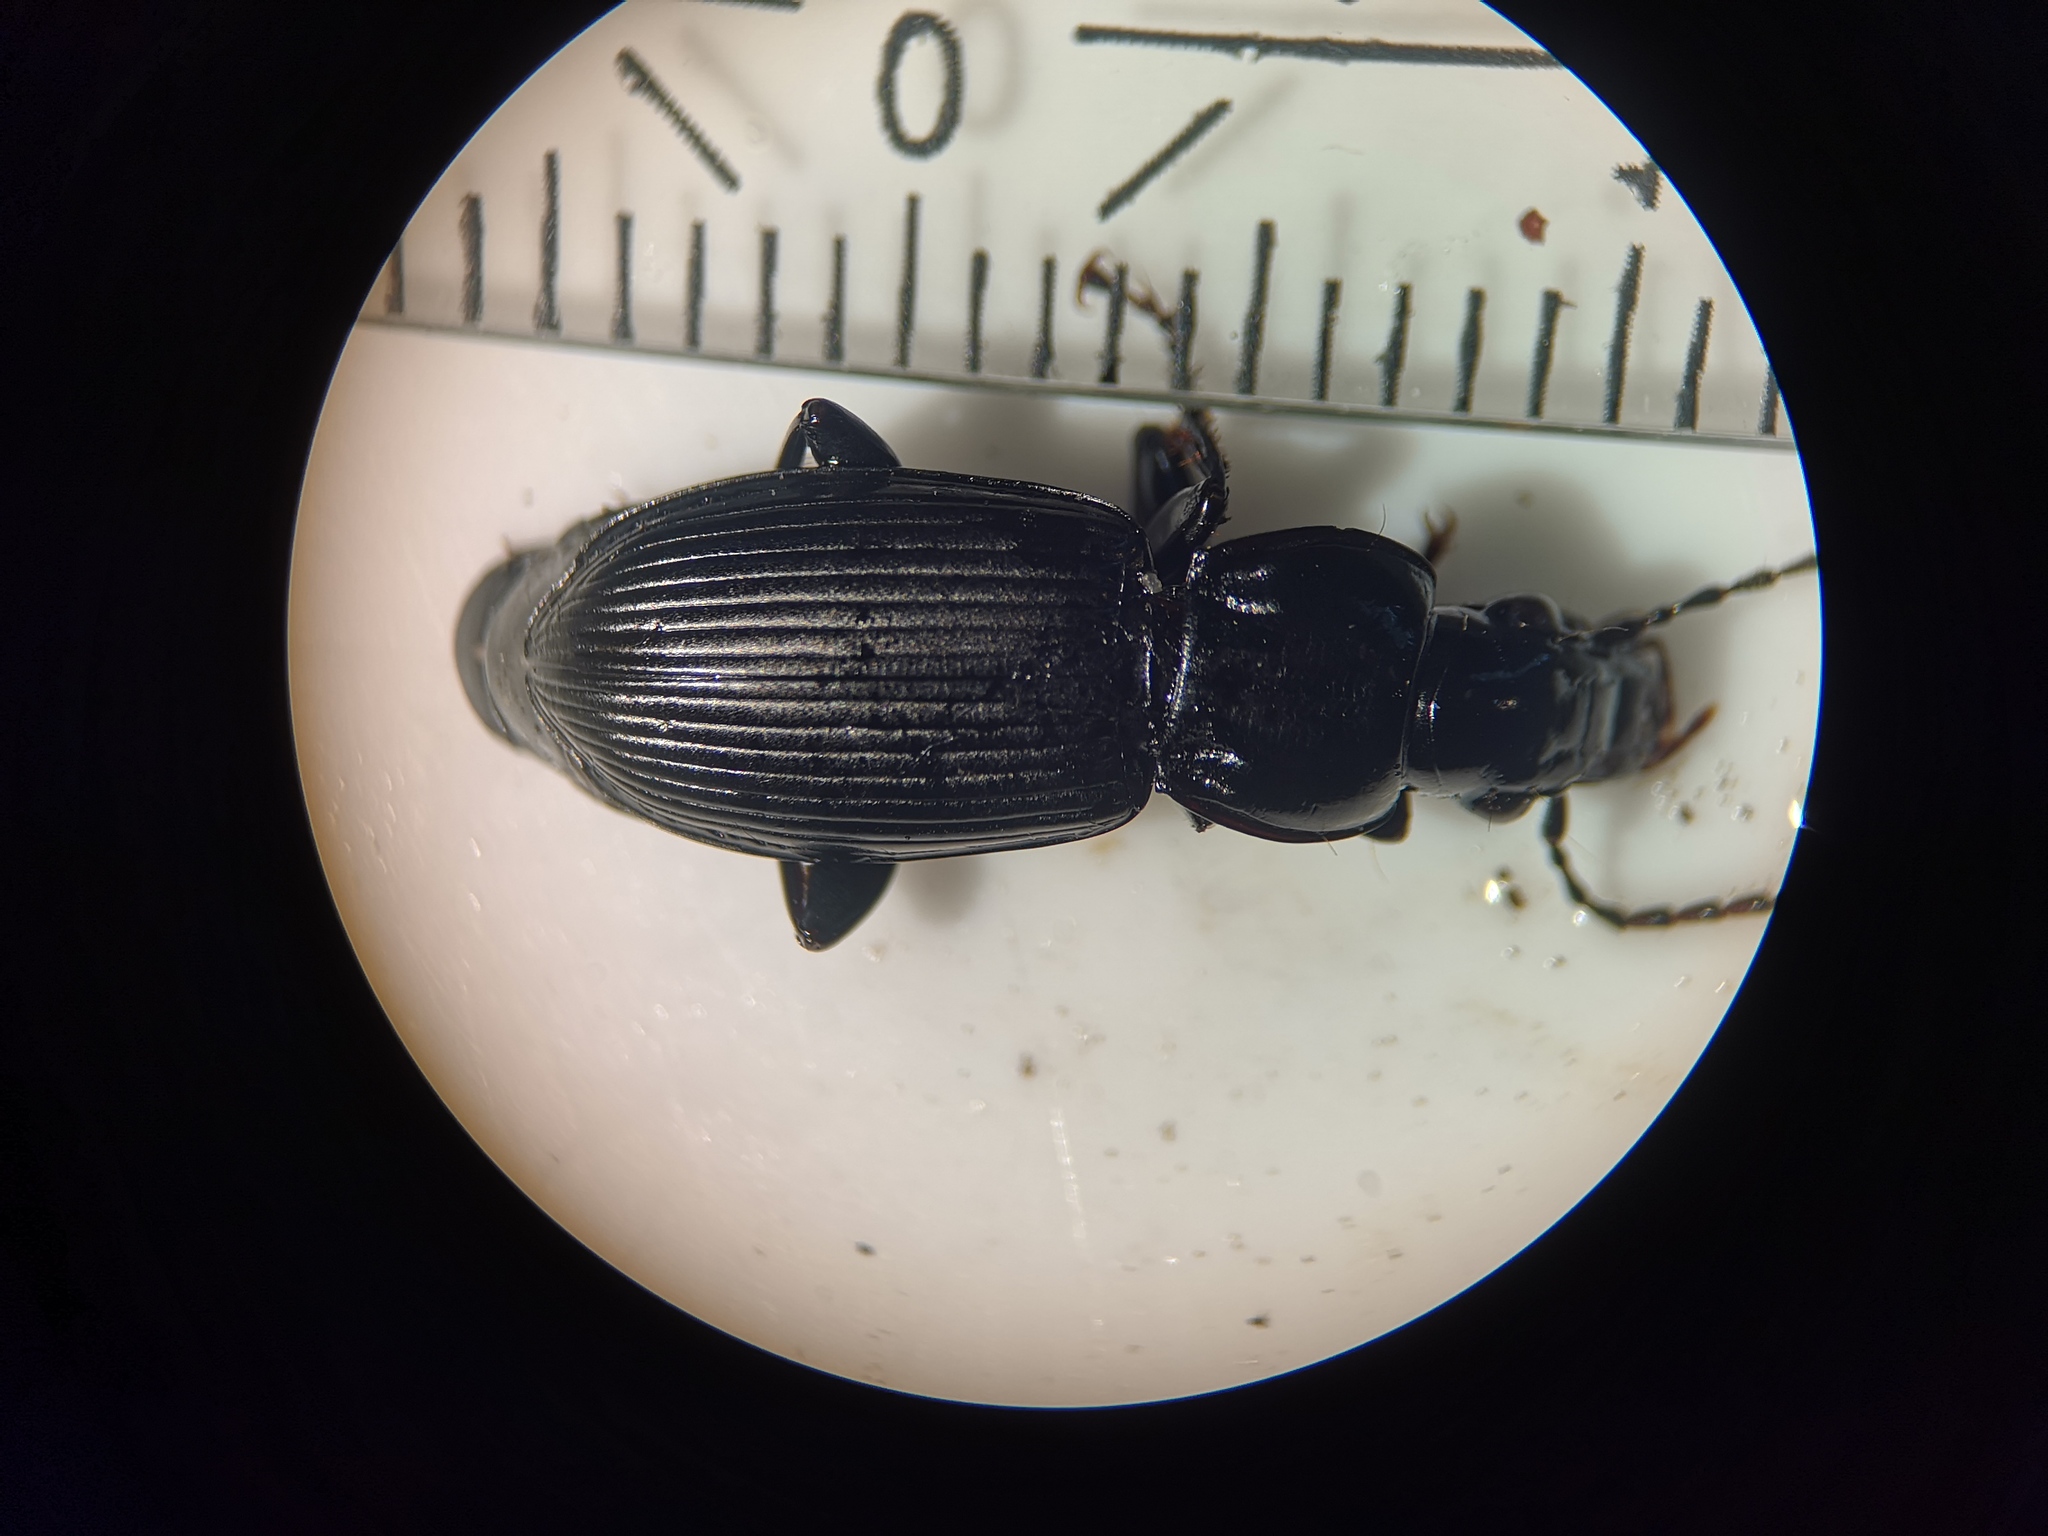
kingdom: Animalia
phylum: Arthropoda
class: Insecta
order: Coleoptera
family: Carabidae
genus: Pterostichus
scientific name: Pterostichus melanarius
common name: European dark harp ground beetle
